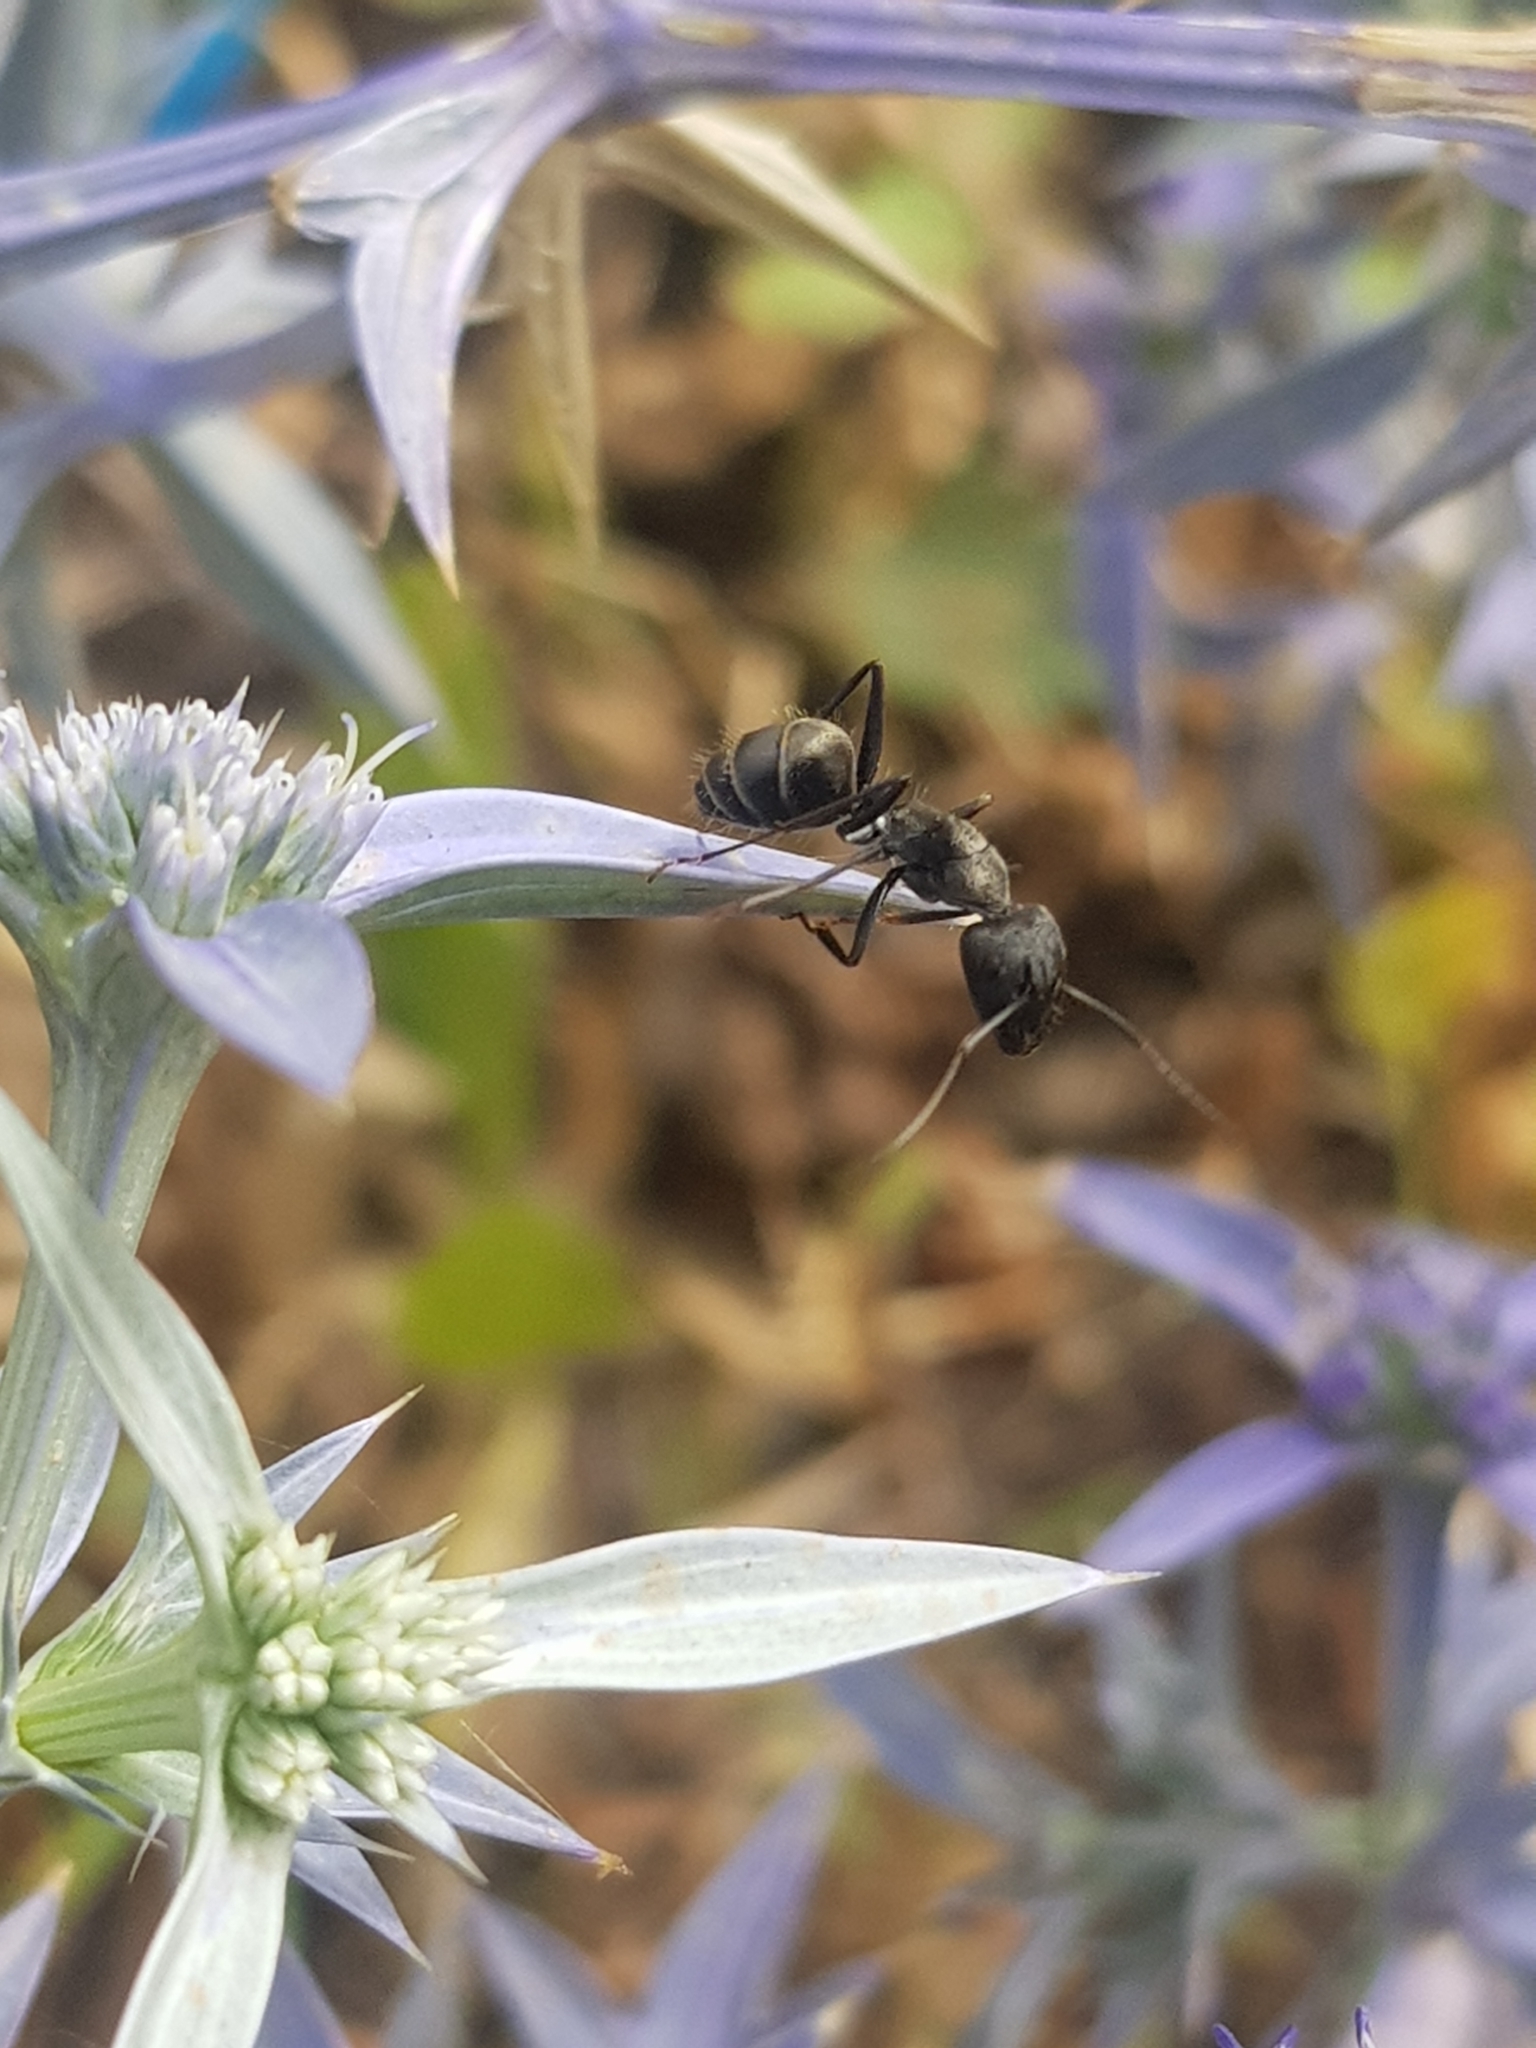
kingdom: Animalia
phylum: Arthropoda
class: Insecta
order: Hymenoptera
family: Formicidae
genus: Camponotus
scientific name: Camponotus micans
